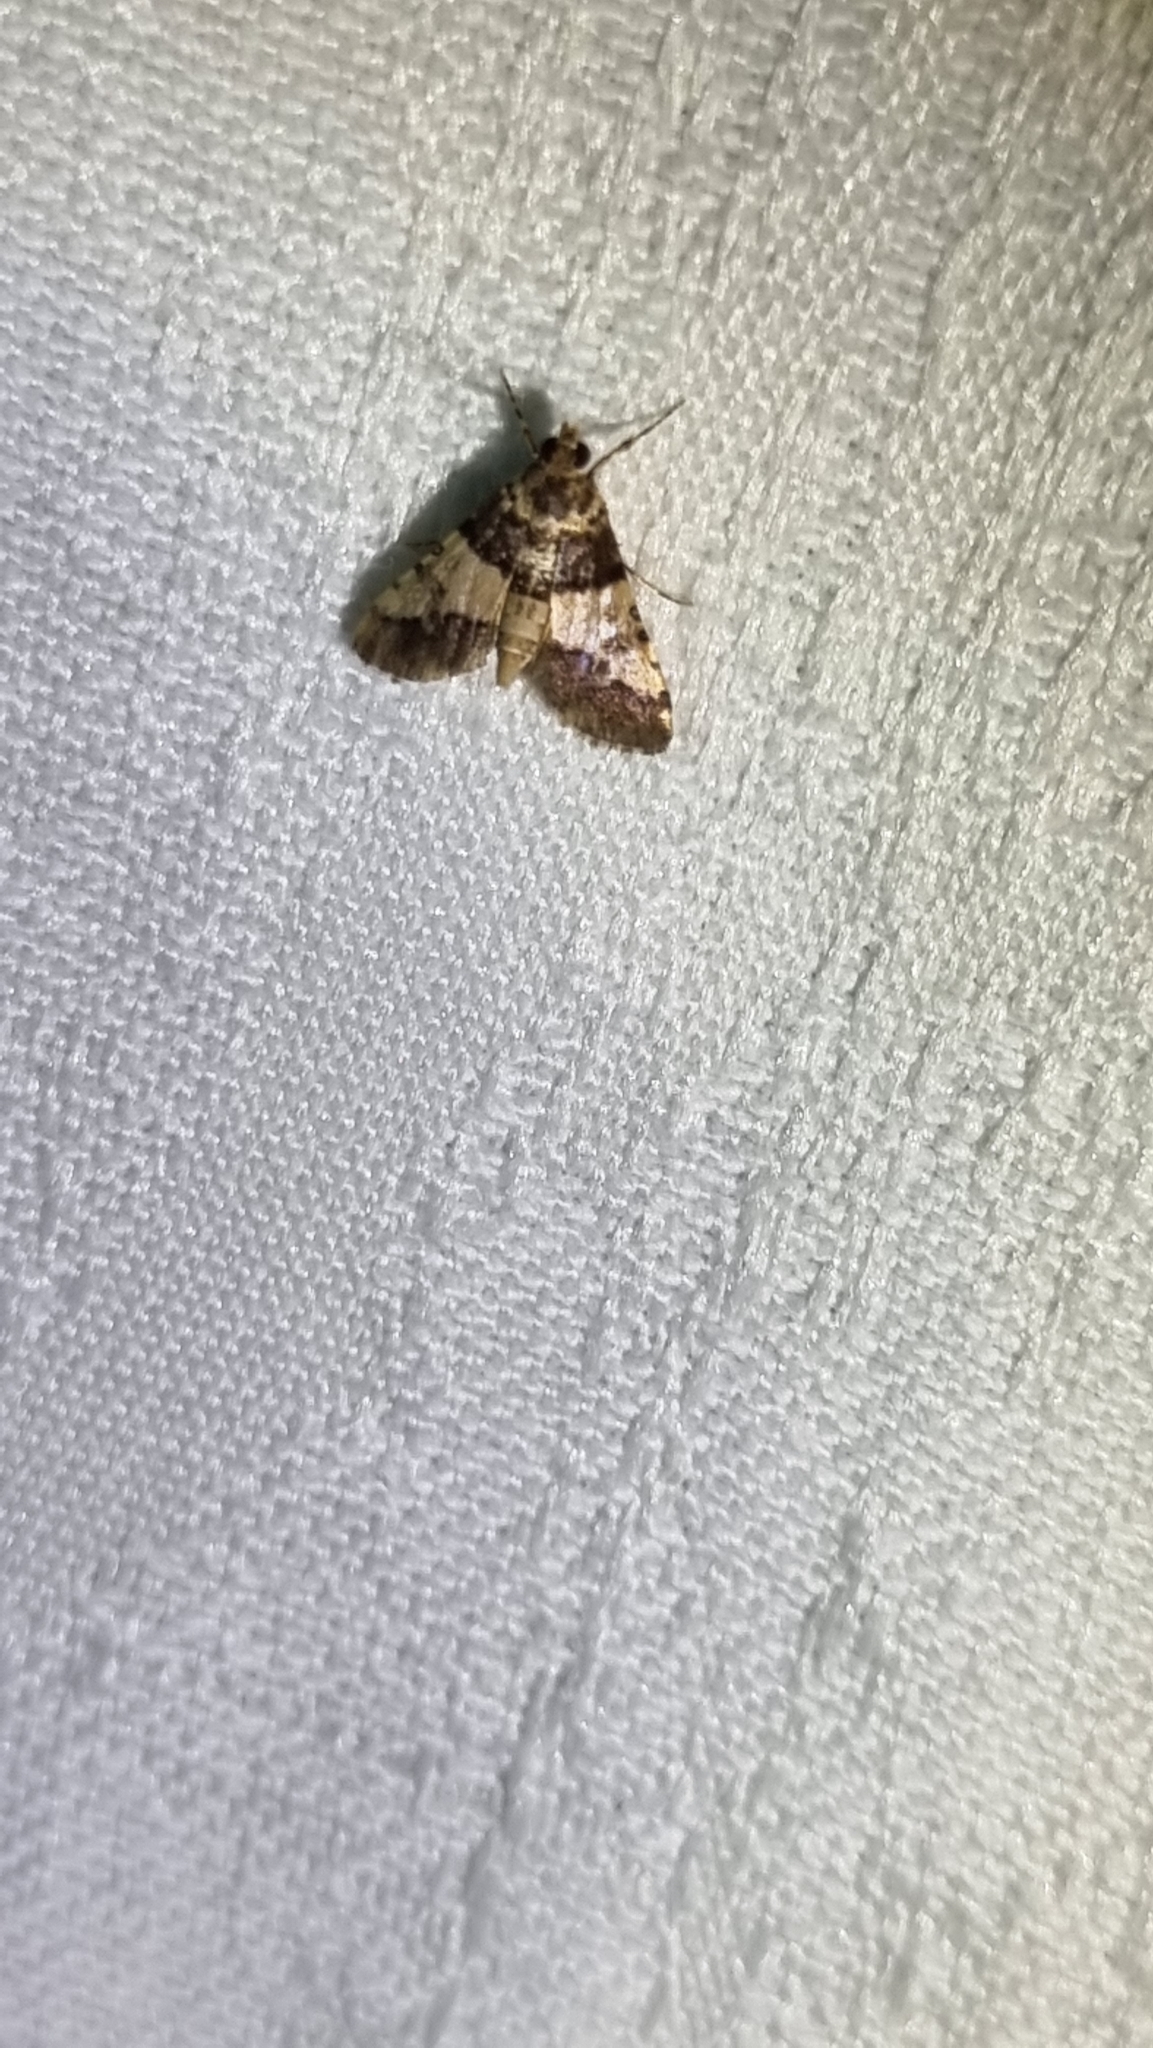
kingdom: Animalia
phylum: Arthropoda
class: Insecta
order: Lepidoptera
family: Crambidae
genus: Nacoleia
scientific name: Nacoleia mesochlora
